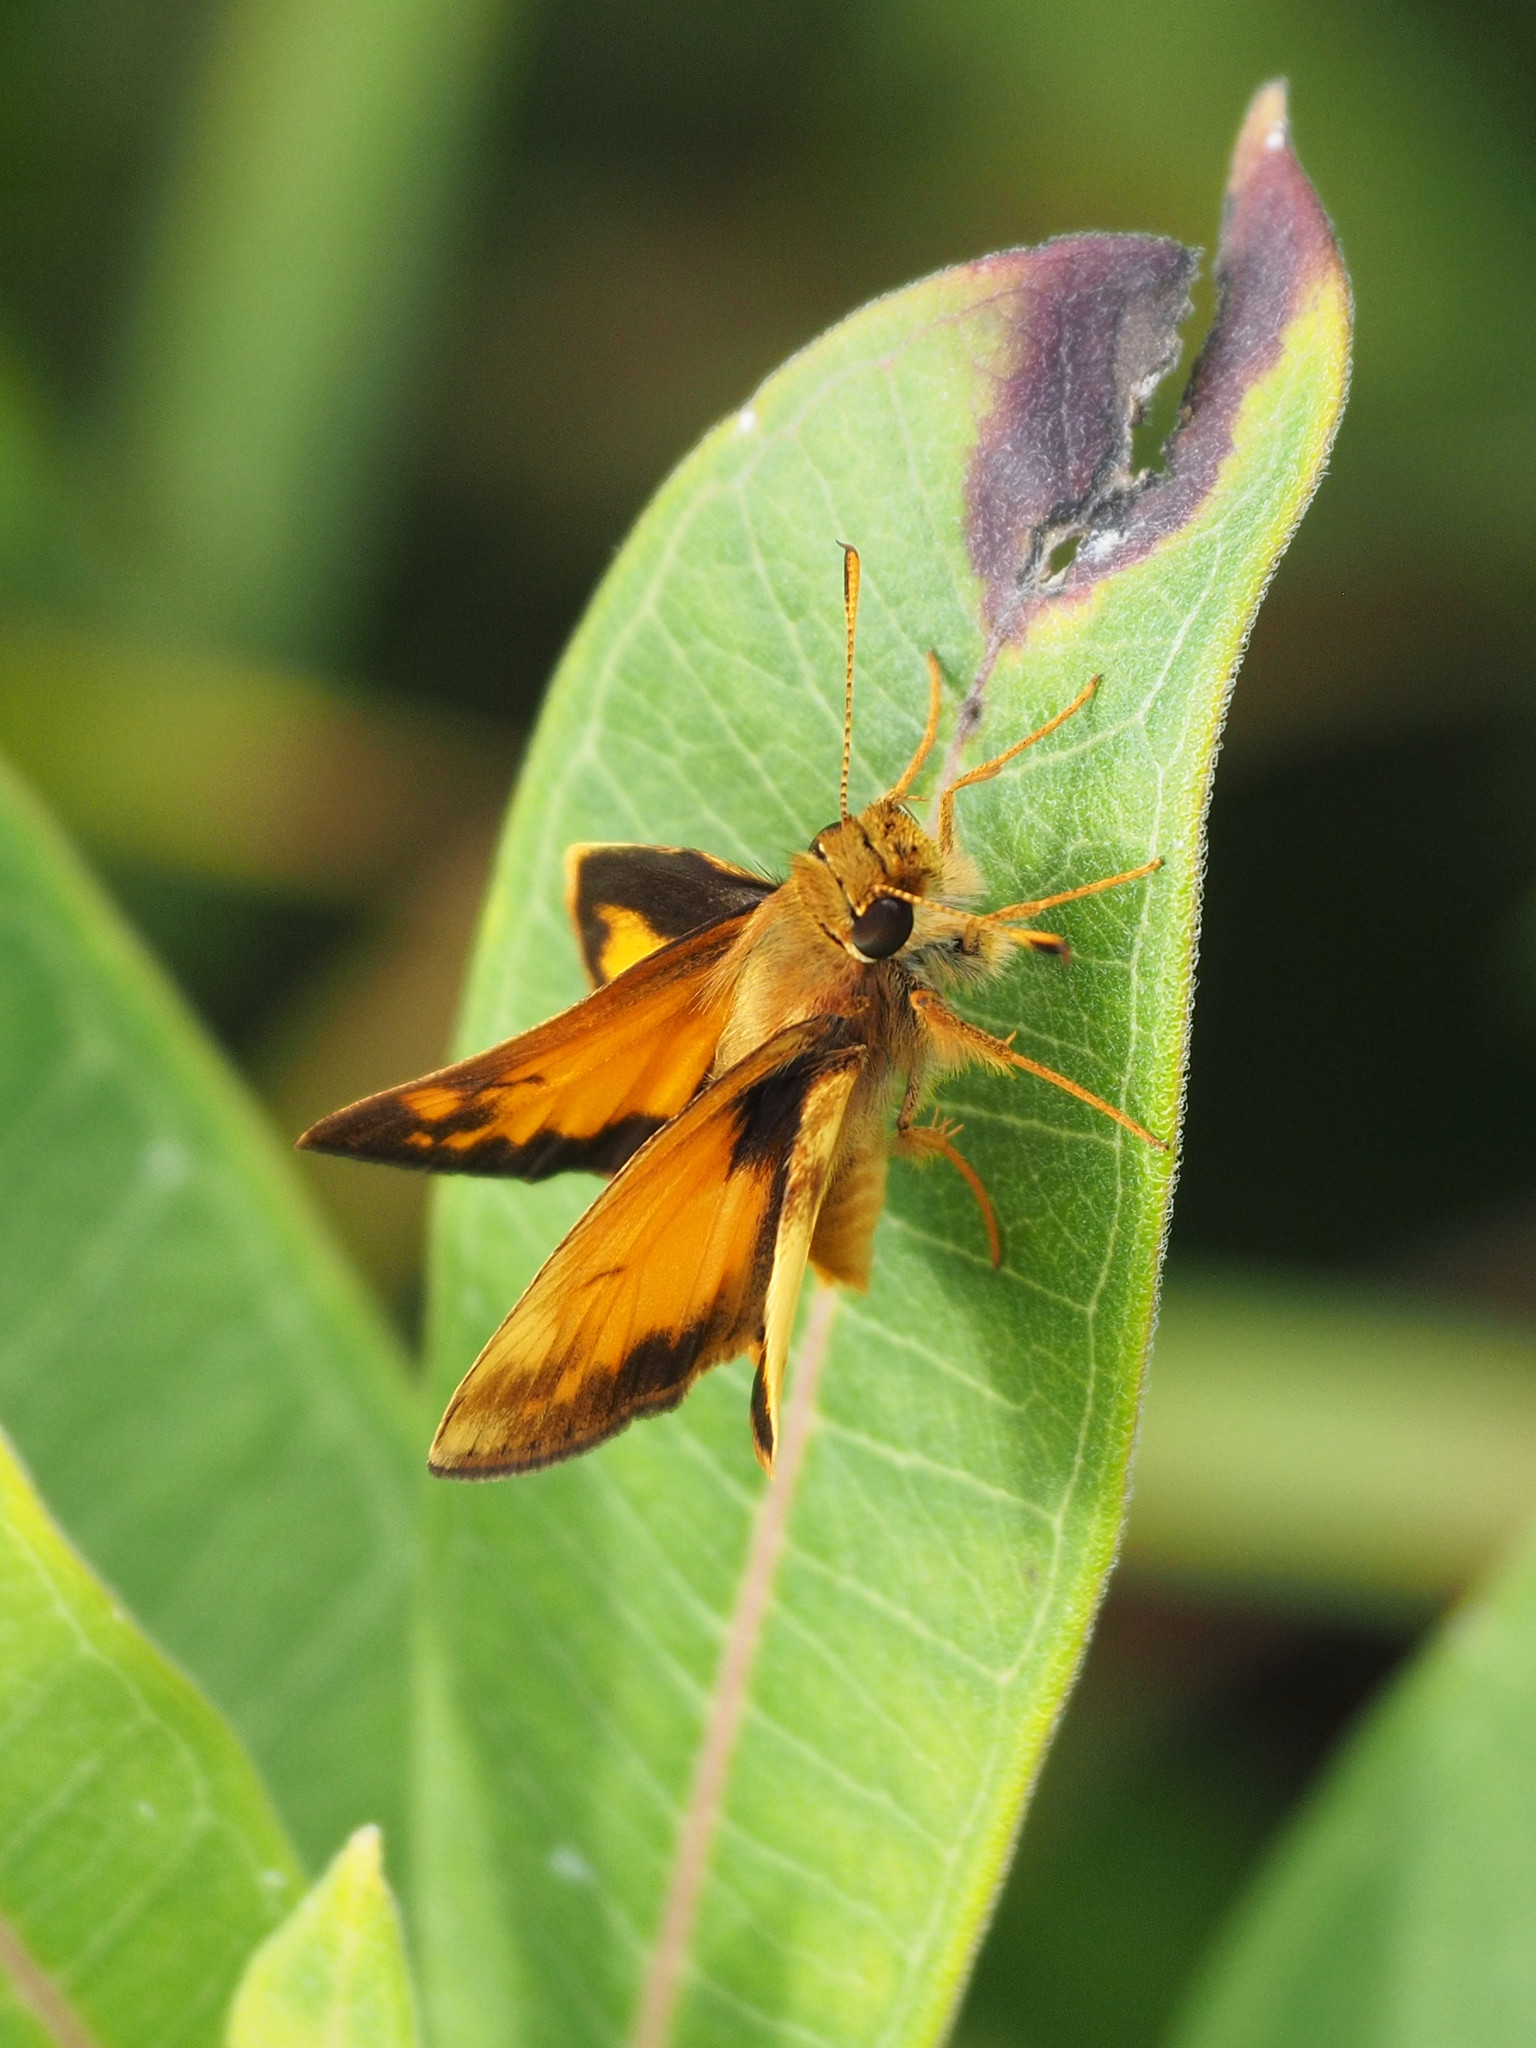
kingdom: Animalia
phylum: Arthropoda
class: Insecta
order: Lepidoptera
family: Hesperiidae
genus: Lon
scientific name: Lon zabulon
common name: Zabulon skipper
